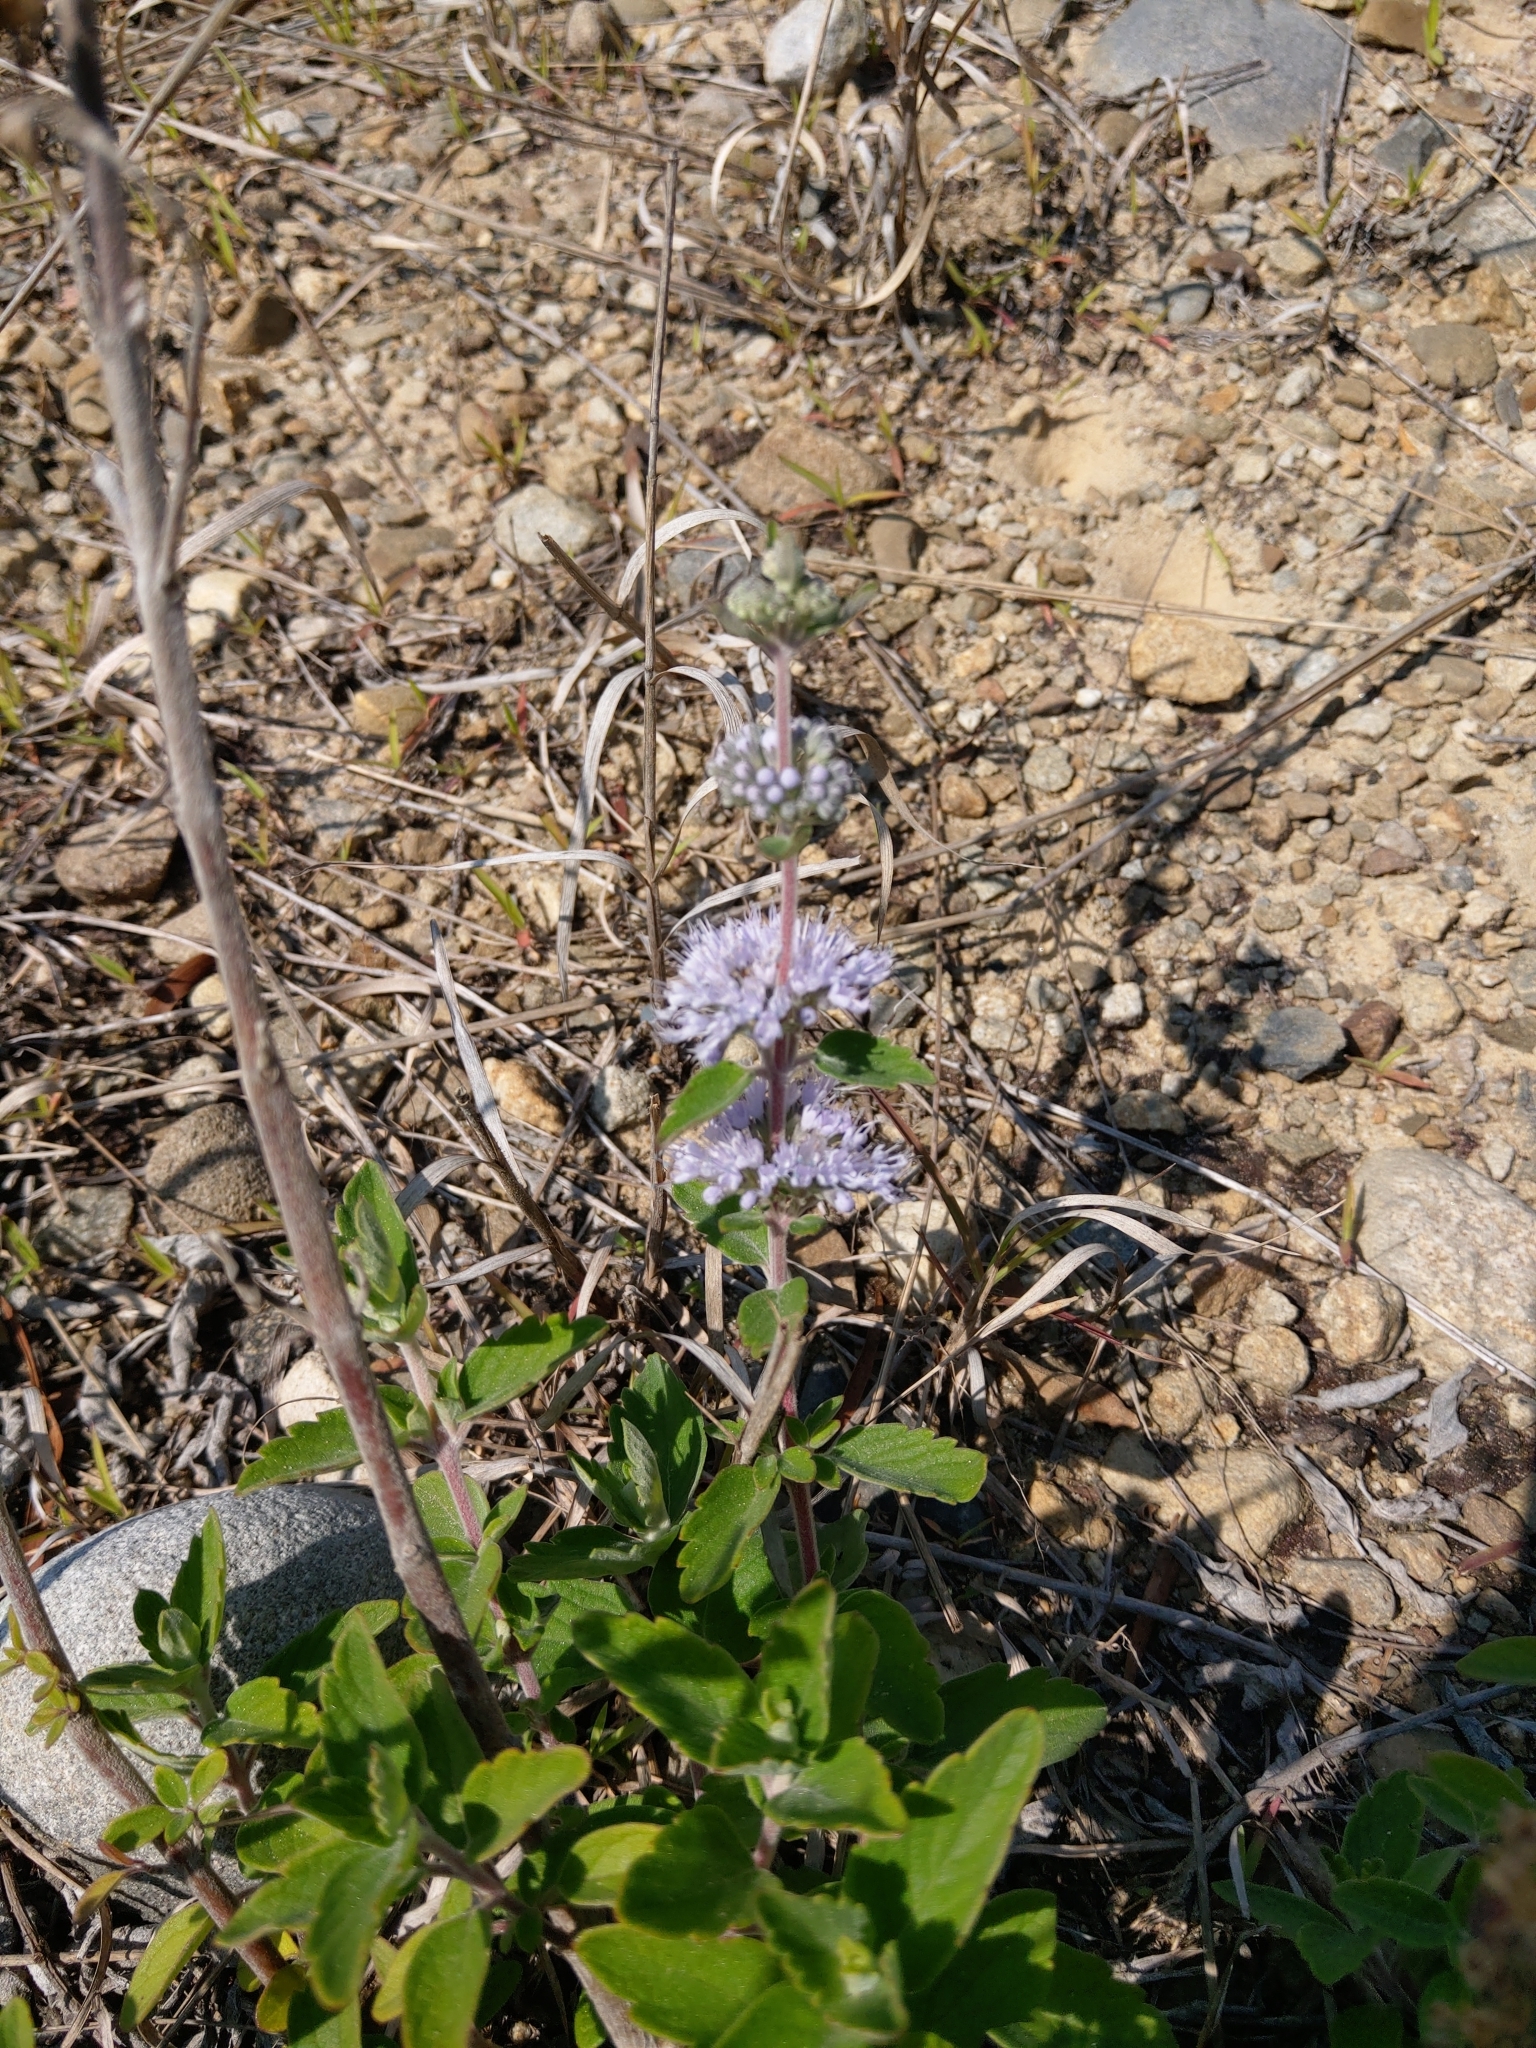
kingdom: Plantae
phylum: Tracheophyta
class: Magnoliopsida
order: Lamiales
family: Lamiaceae
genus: Caryopteris
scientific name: Caryopteris incana
